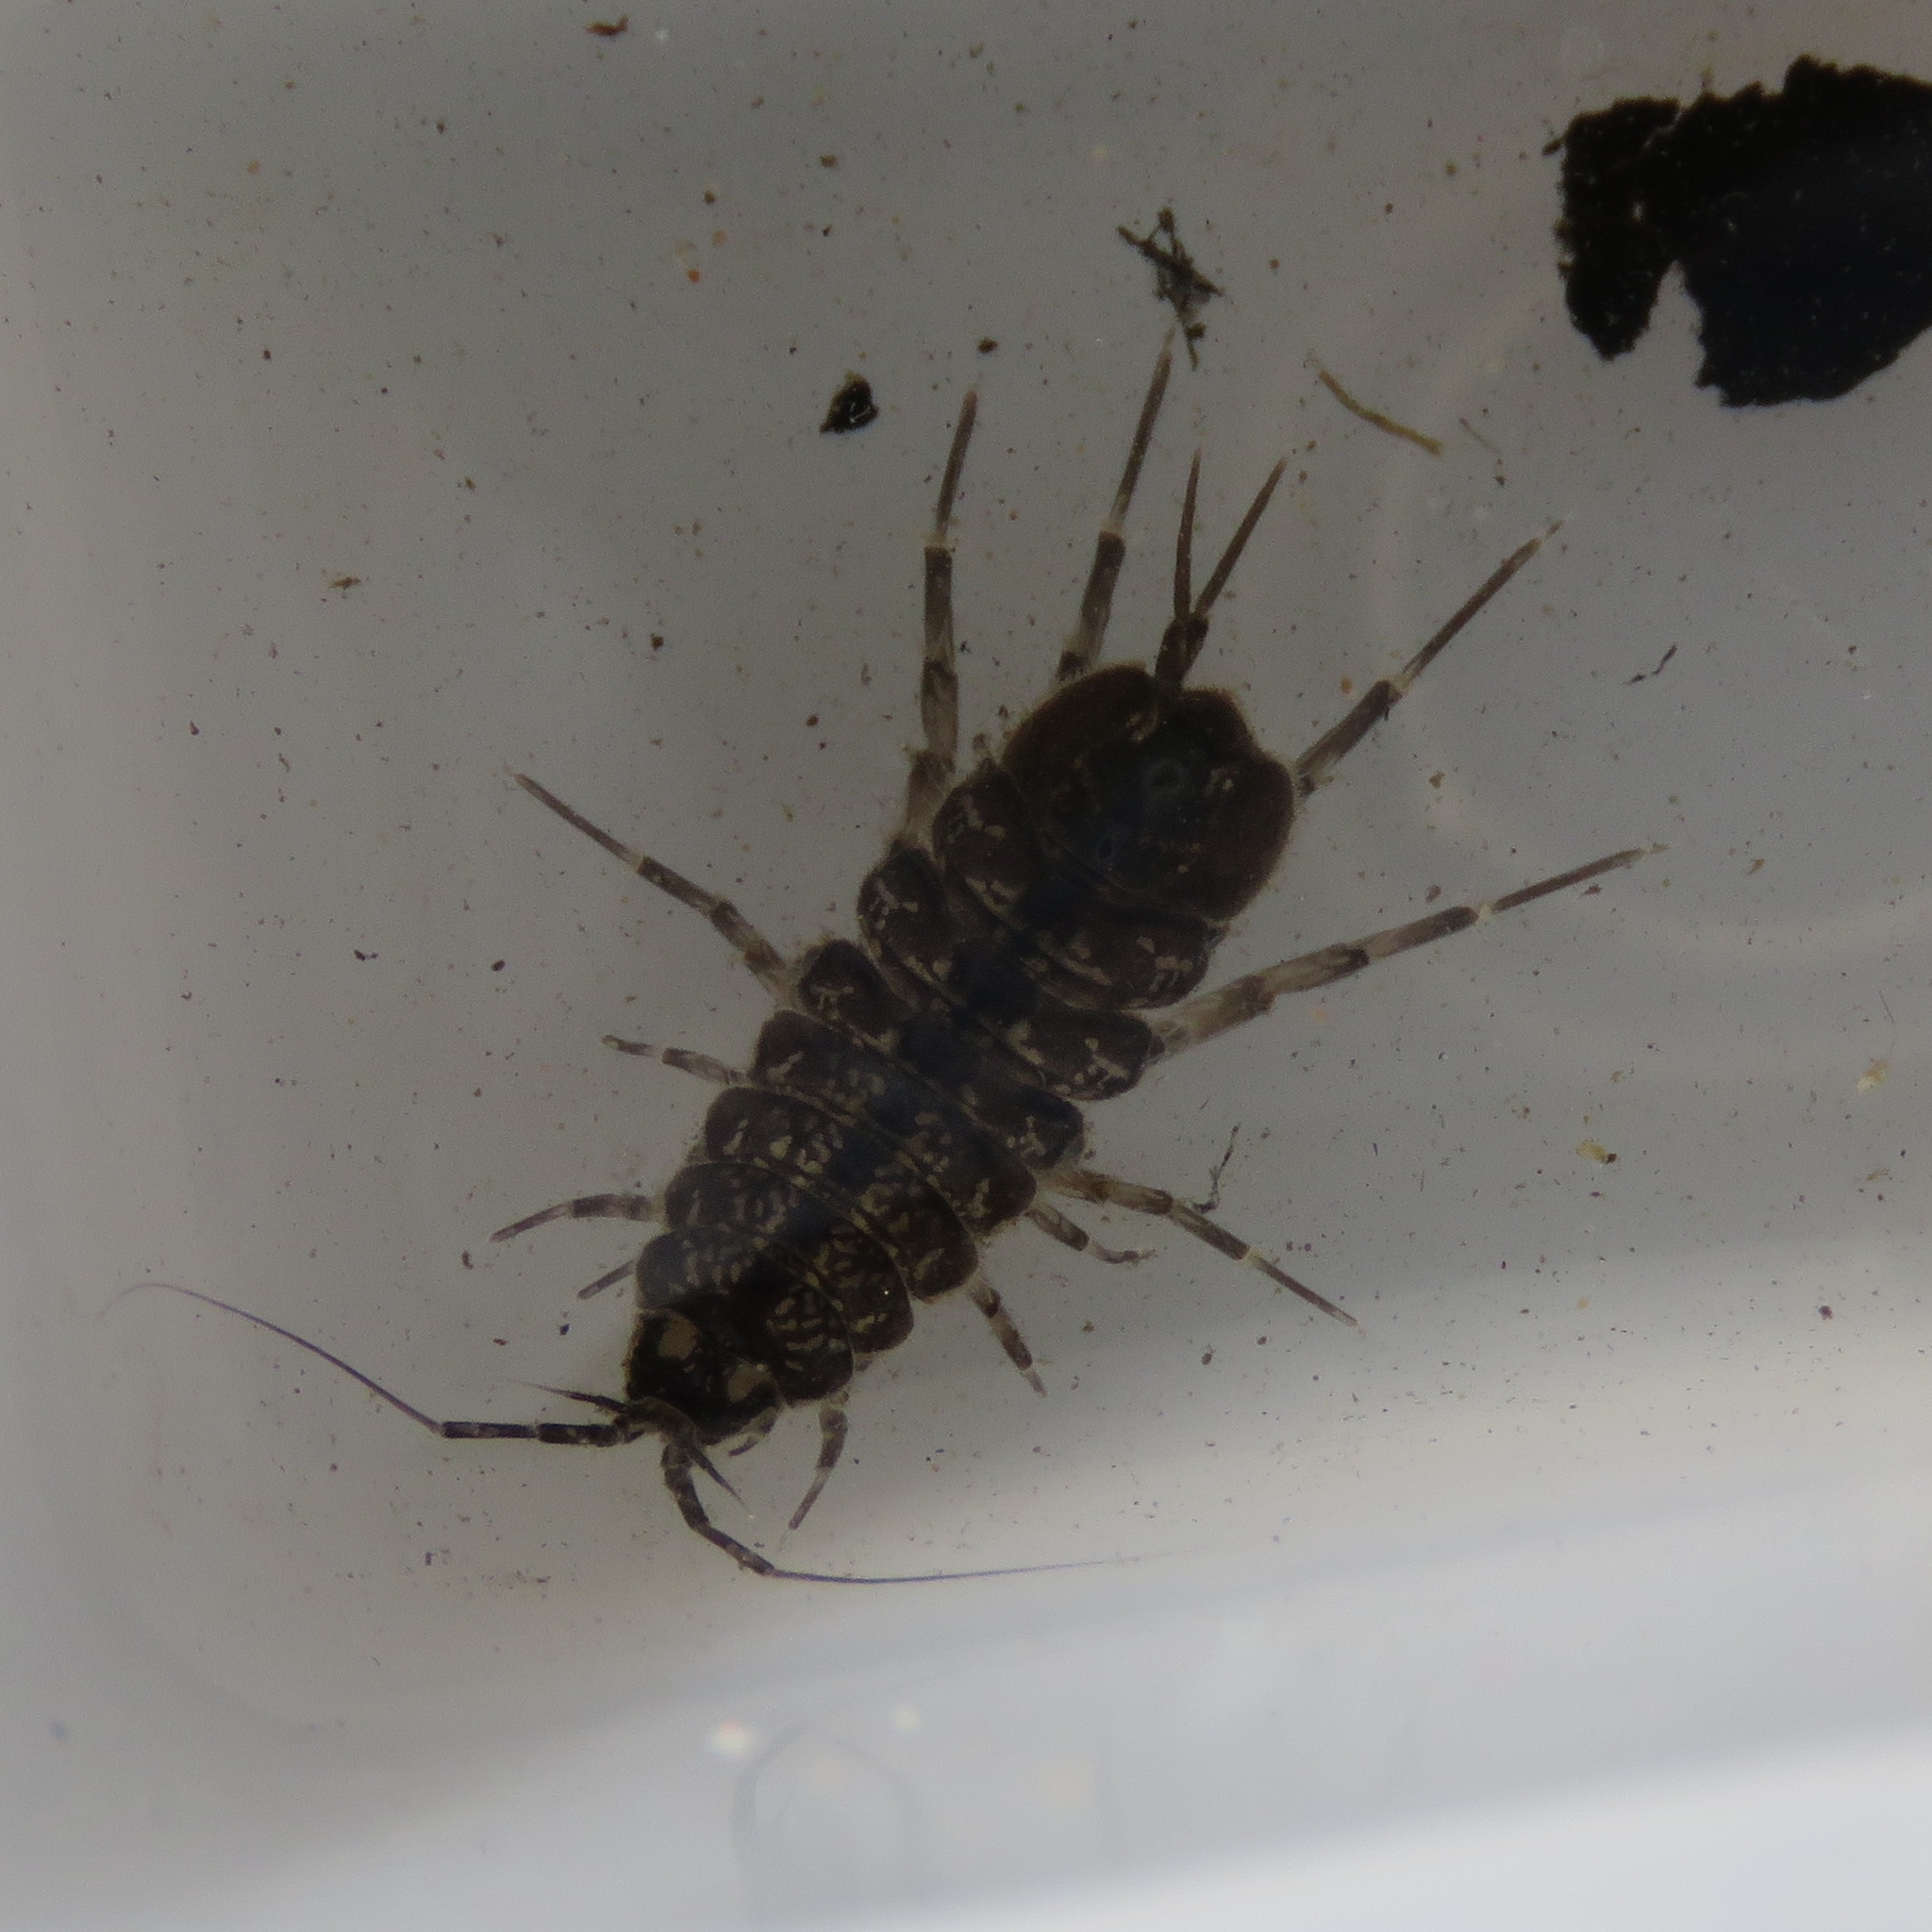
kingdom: Animalia
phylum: Arthropoda
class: Malacostraca
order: Isopoda
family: Asellidae
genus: Asellus
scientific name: Asellus aquaticus
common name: Water hog lice/slaters
